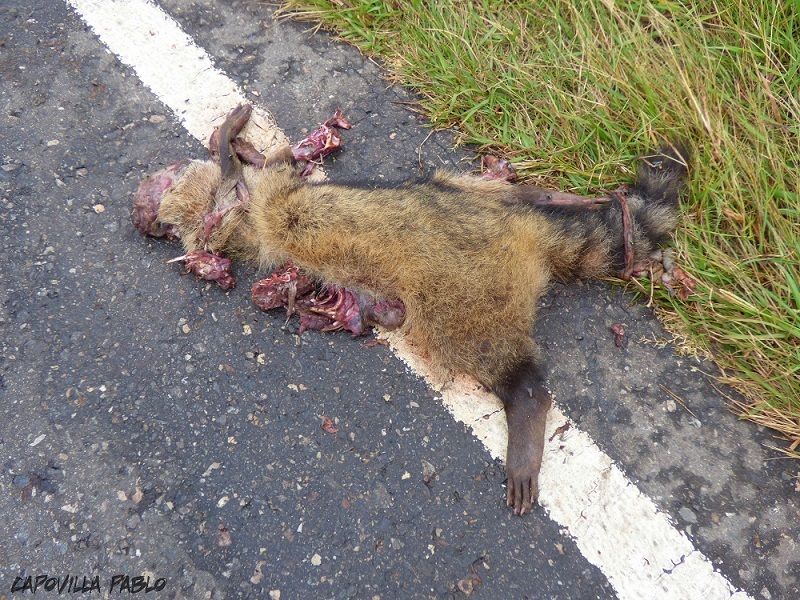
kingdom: Animalia
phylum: Chordata
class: Mammalia
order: Carnivora
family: Procyonidae
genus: Procyon
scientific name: Procyon cancrivorus
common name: Crab-eating raccoon
